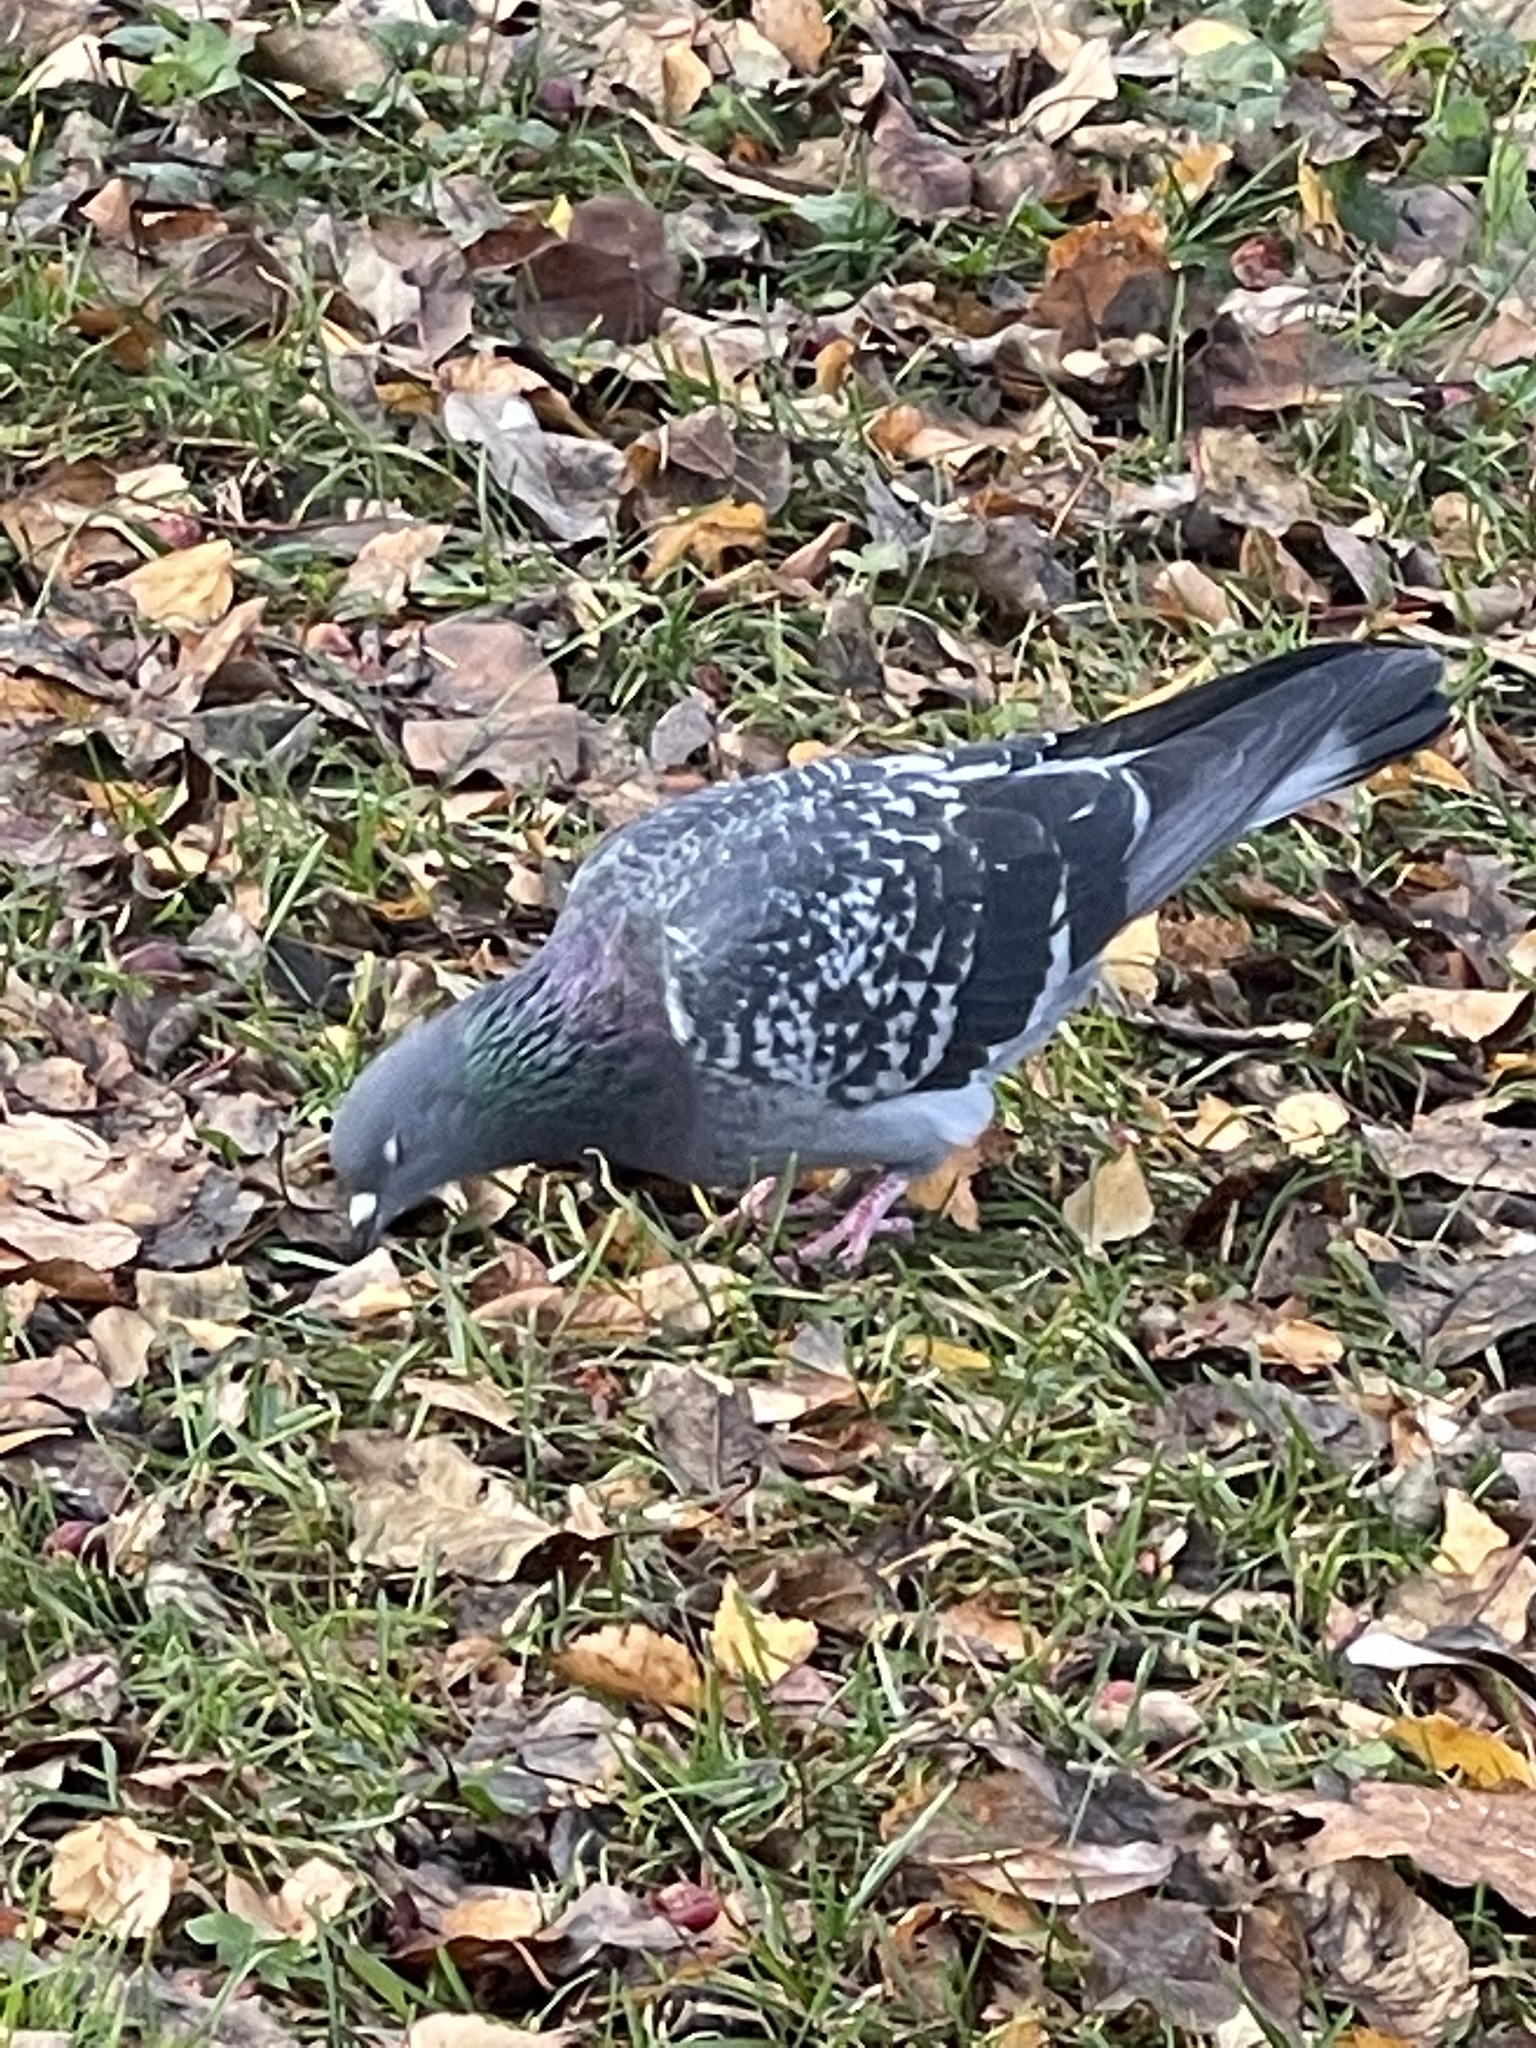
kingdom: Animalia
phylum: Chordata
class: Aves
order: Columbiformes
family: Columbidae
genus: Columba
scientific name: Columba livia
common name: Rock pigeon
